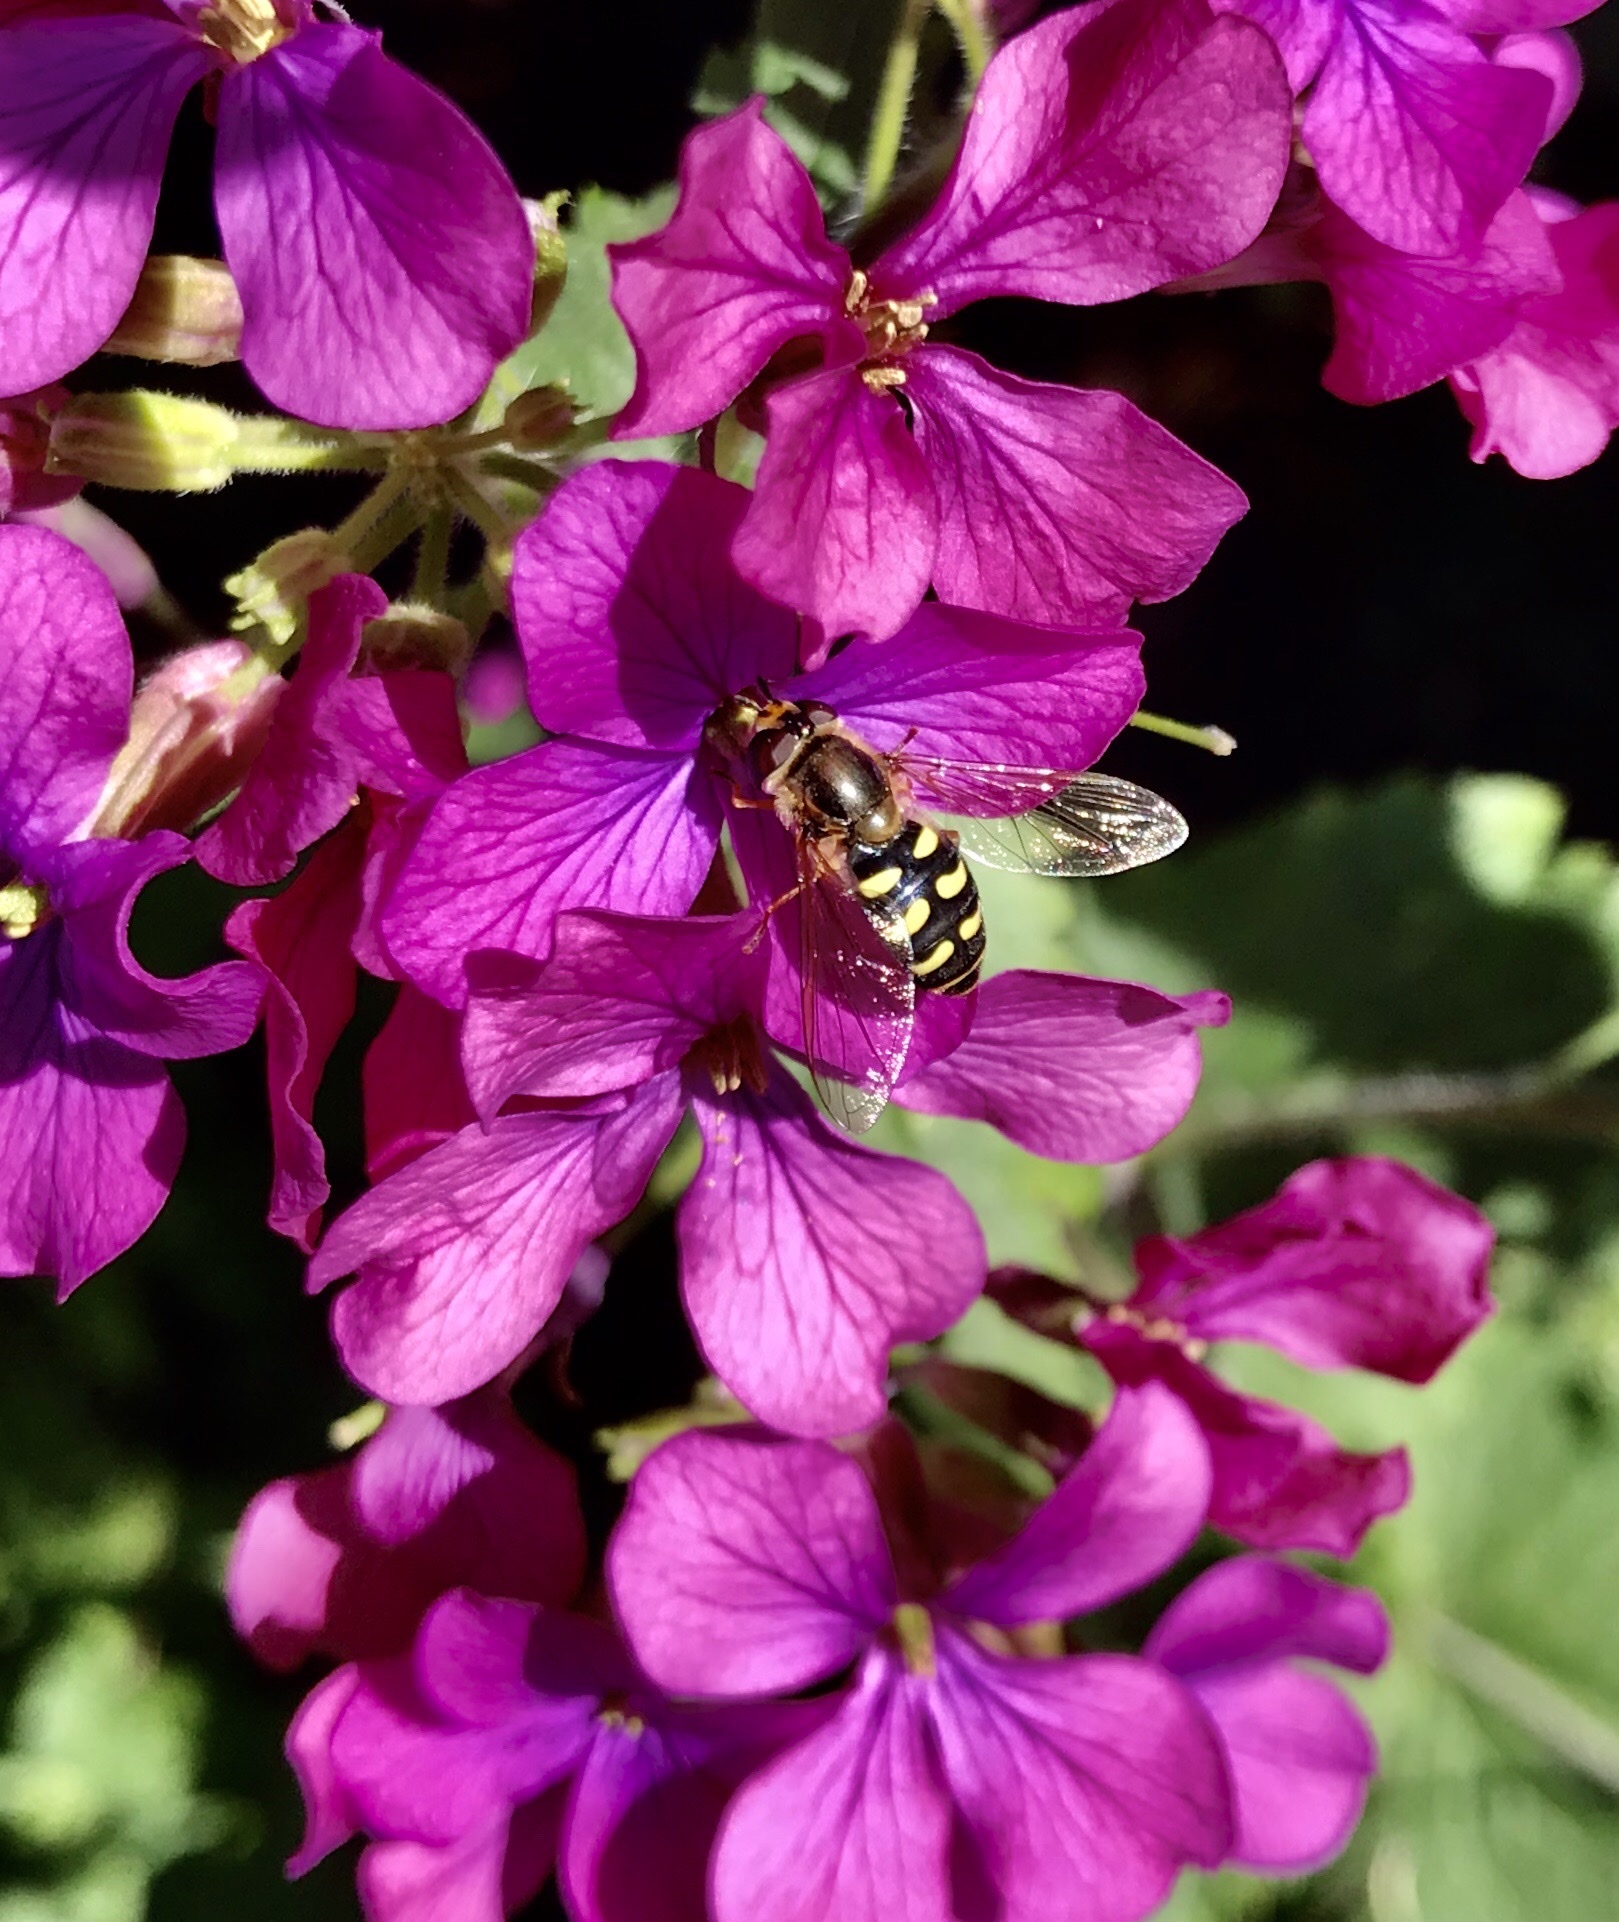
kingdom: Animalia
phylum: Arthropoda
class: Insecta
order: Diptera
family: Syrphidae
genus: Eupeodes
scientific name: Eupeodes corollae
